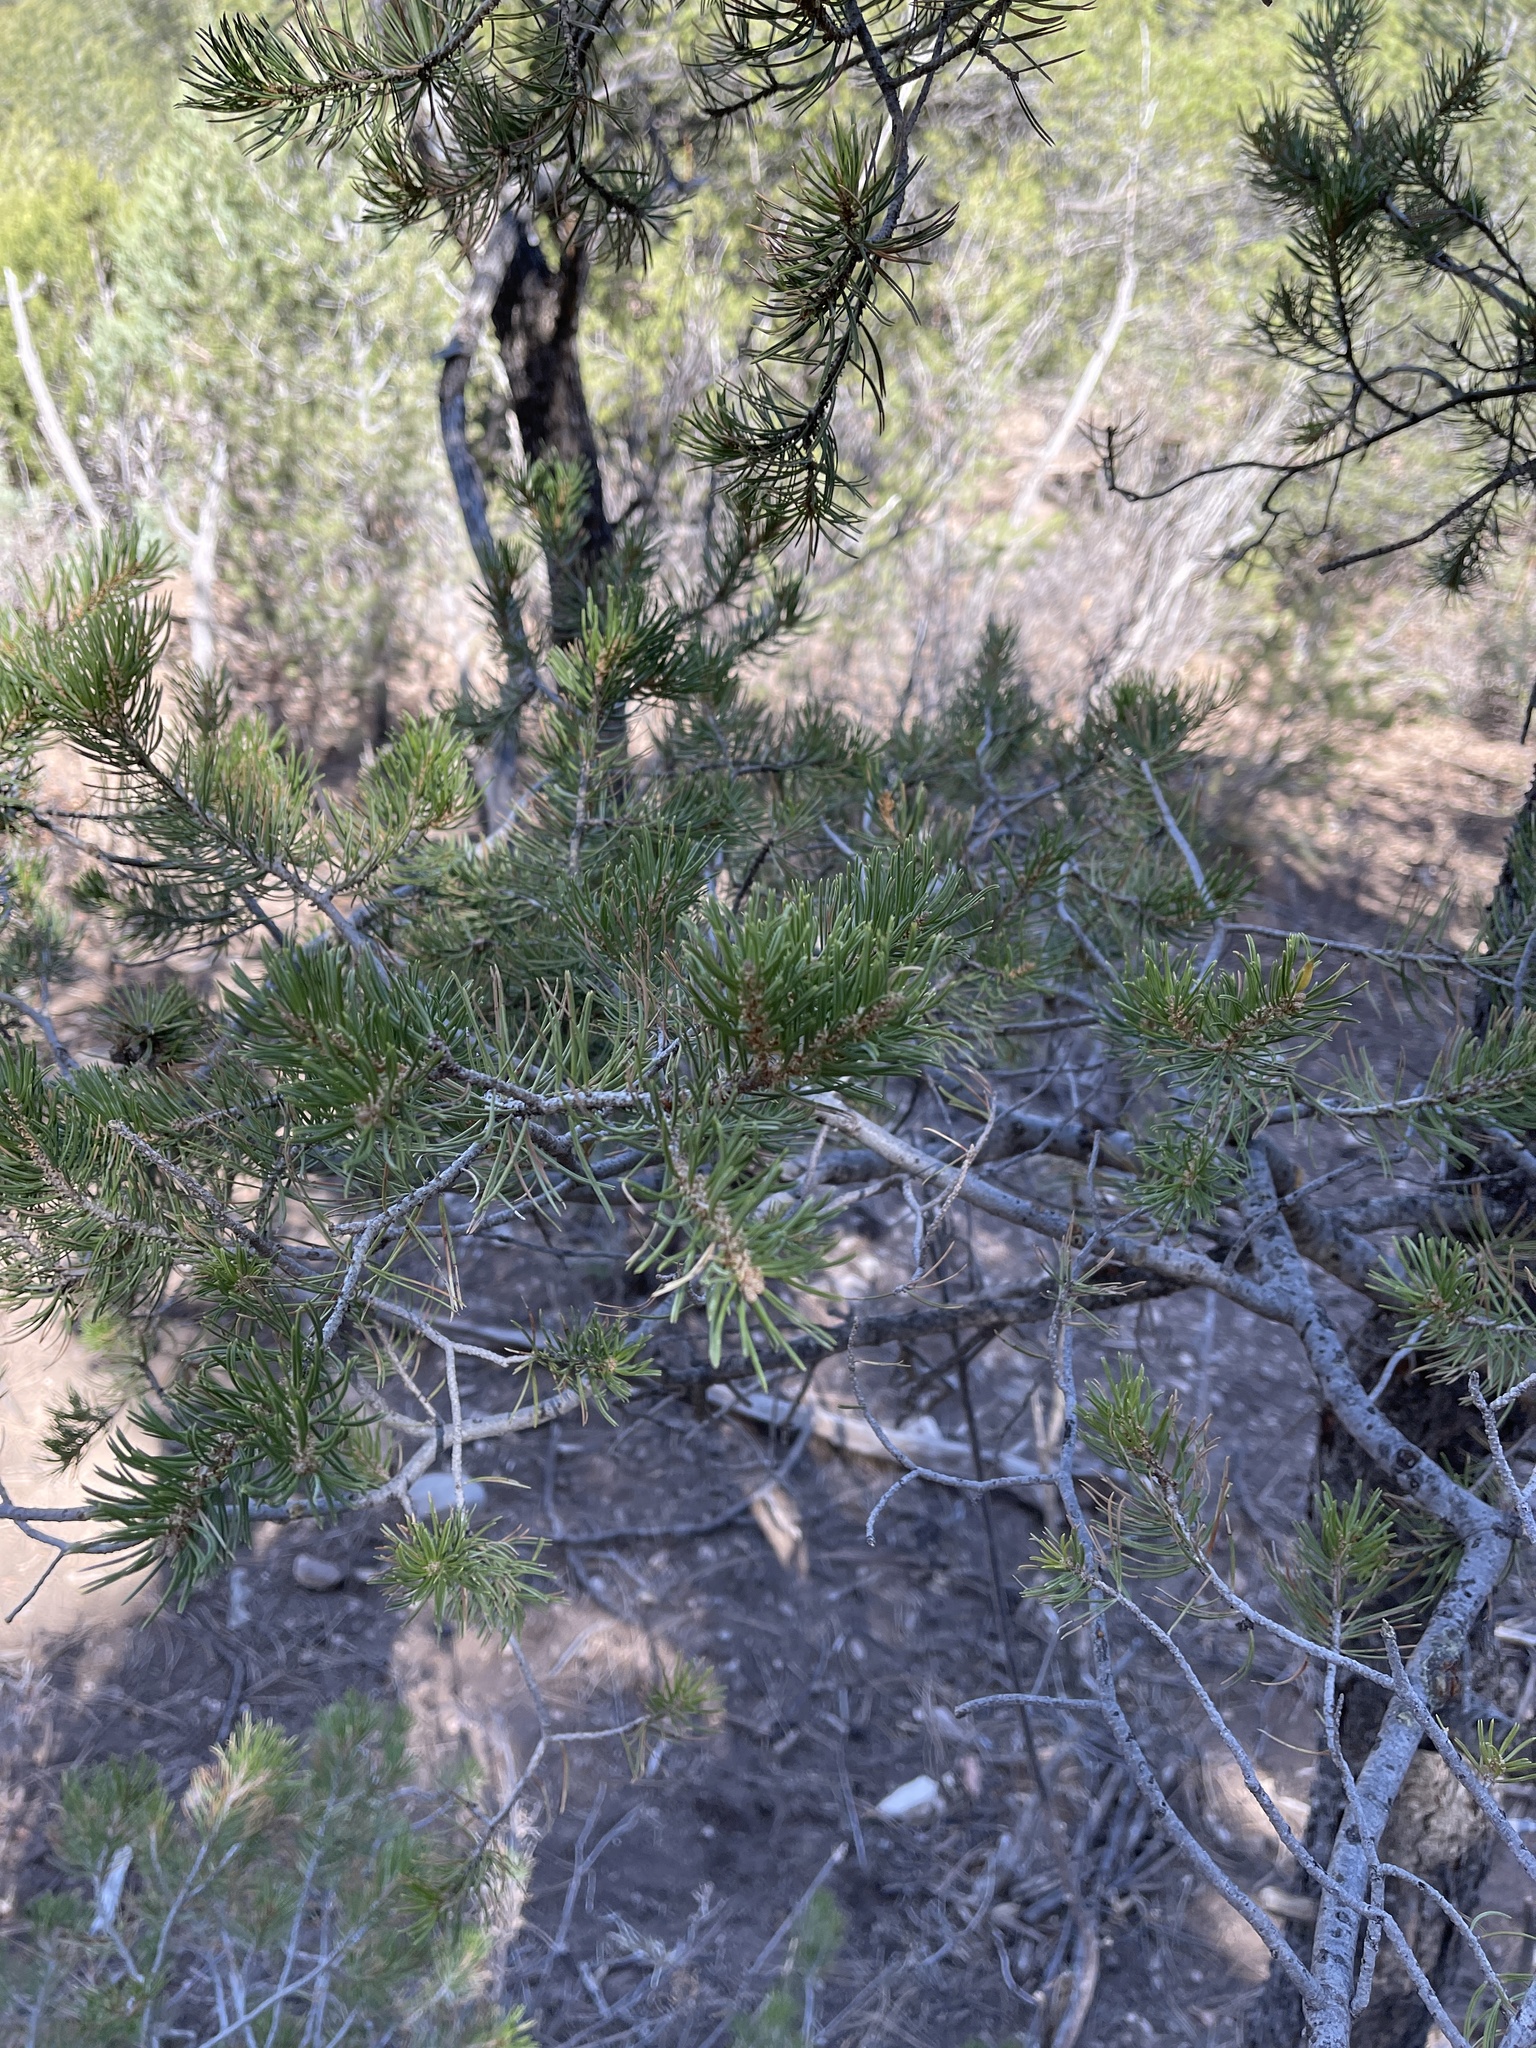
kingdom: Plantae
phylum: Tracheophyta
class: Pinopsida
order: Pinales
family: Pinaceae
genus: Pinus
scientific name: Pinus edulis
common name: Colorado pinyon
